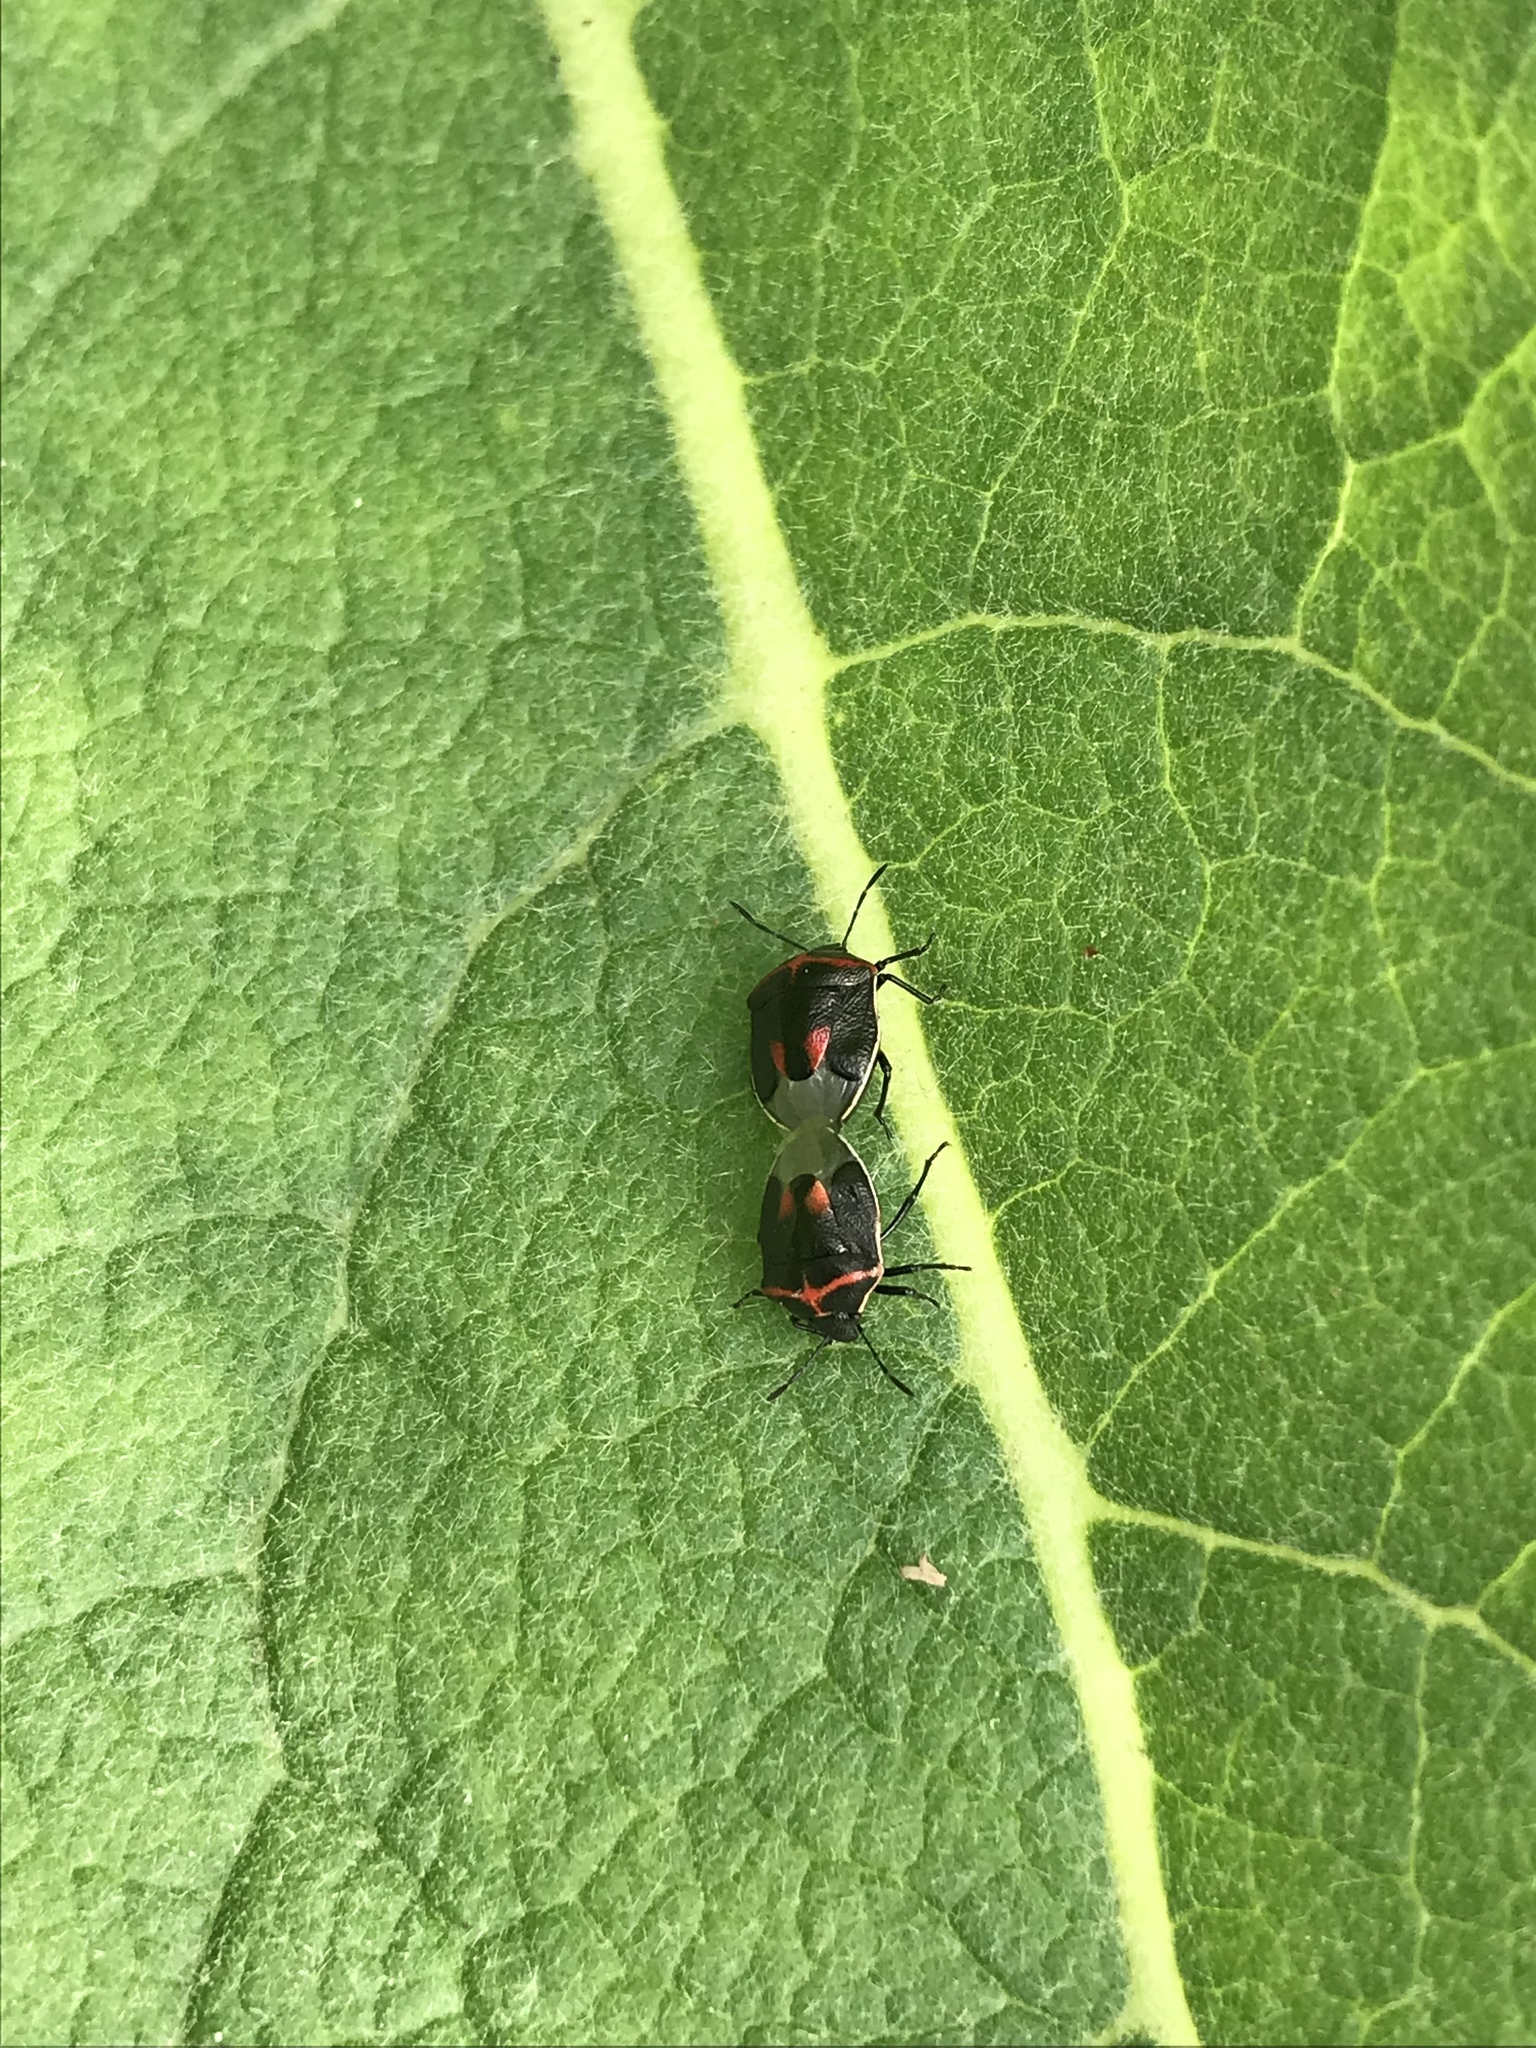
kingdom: Animalia
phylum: Arthropoda
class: Insecta
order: Hemiptera
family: Pentatomidae
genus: Cosmopepla
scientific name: Cosmopepla lintneriana
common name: Twice-stabbed stink bug
